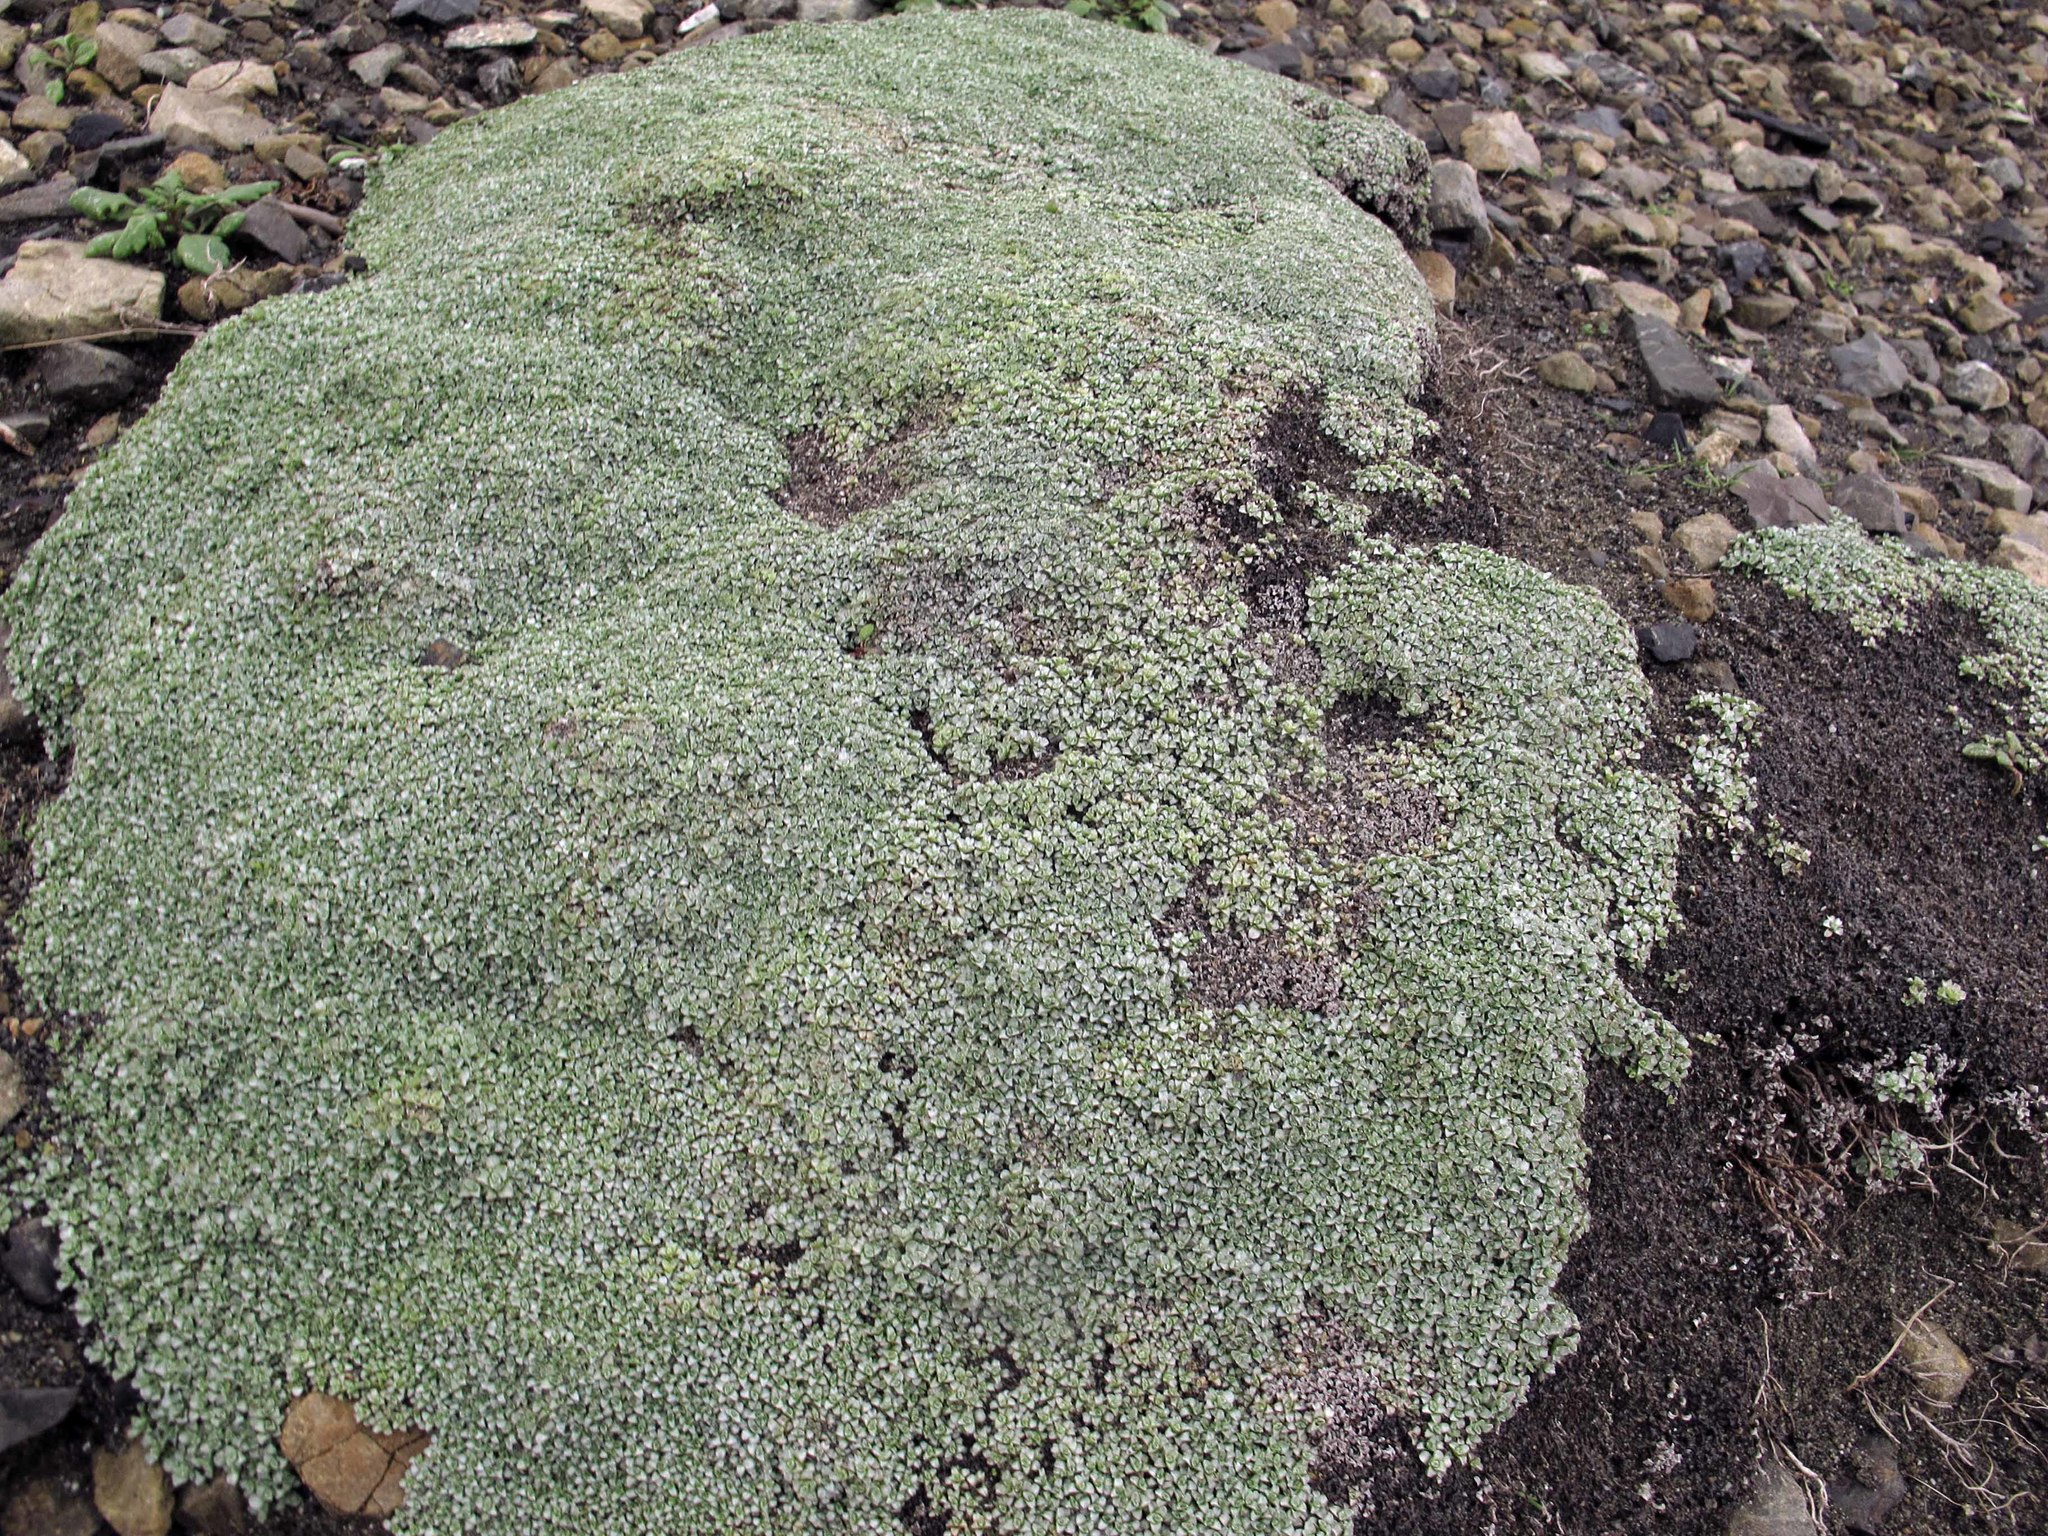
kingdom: Plantae
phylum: Tracheophyta
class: Magnoliopsida
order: Asterales
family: Asteraceae
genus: Raoulia
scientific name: Raoulia hookeri
